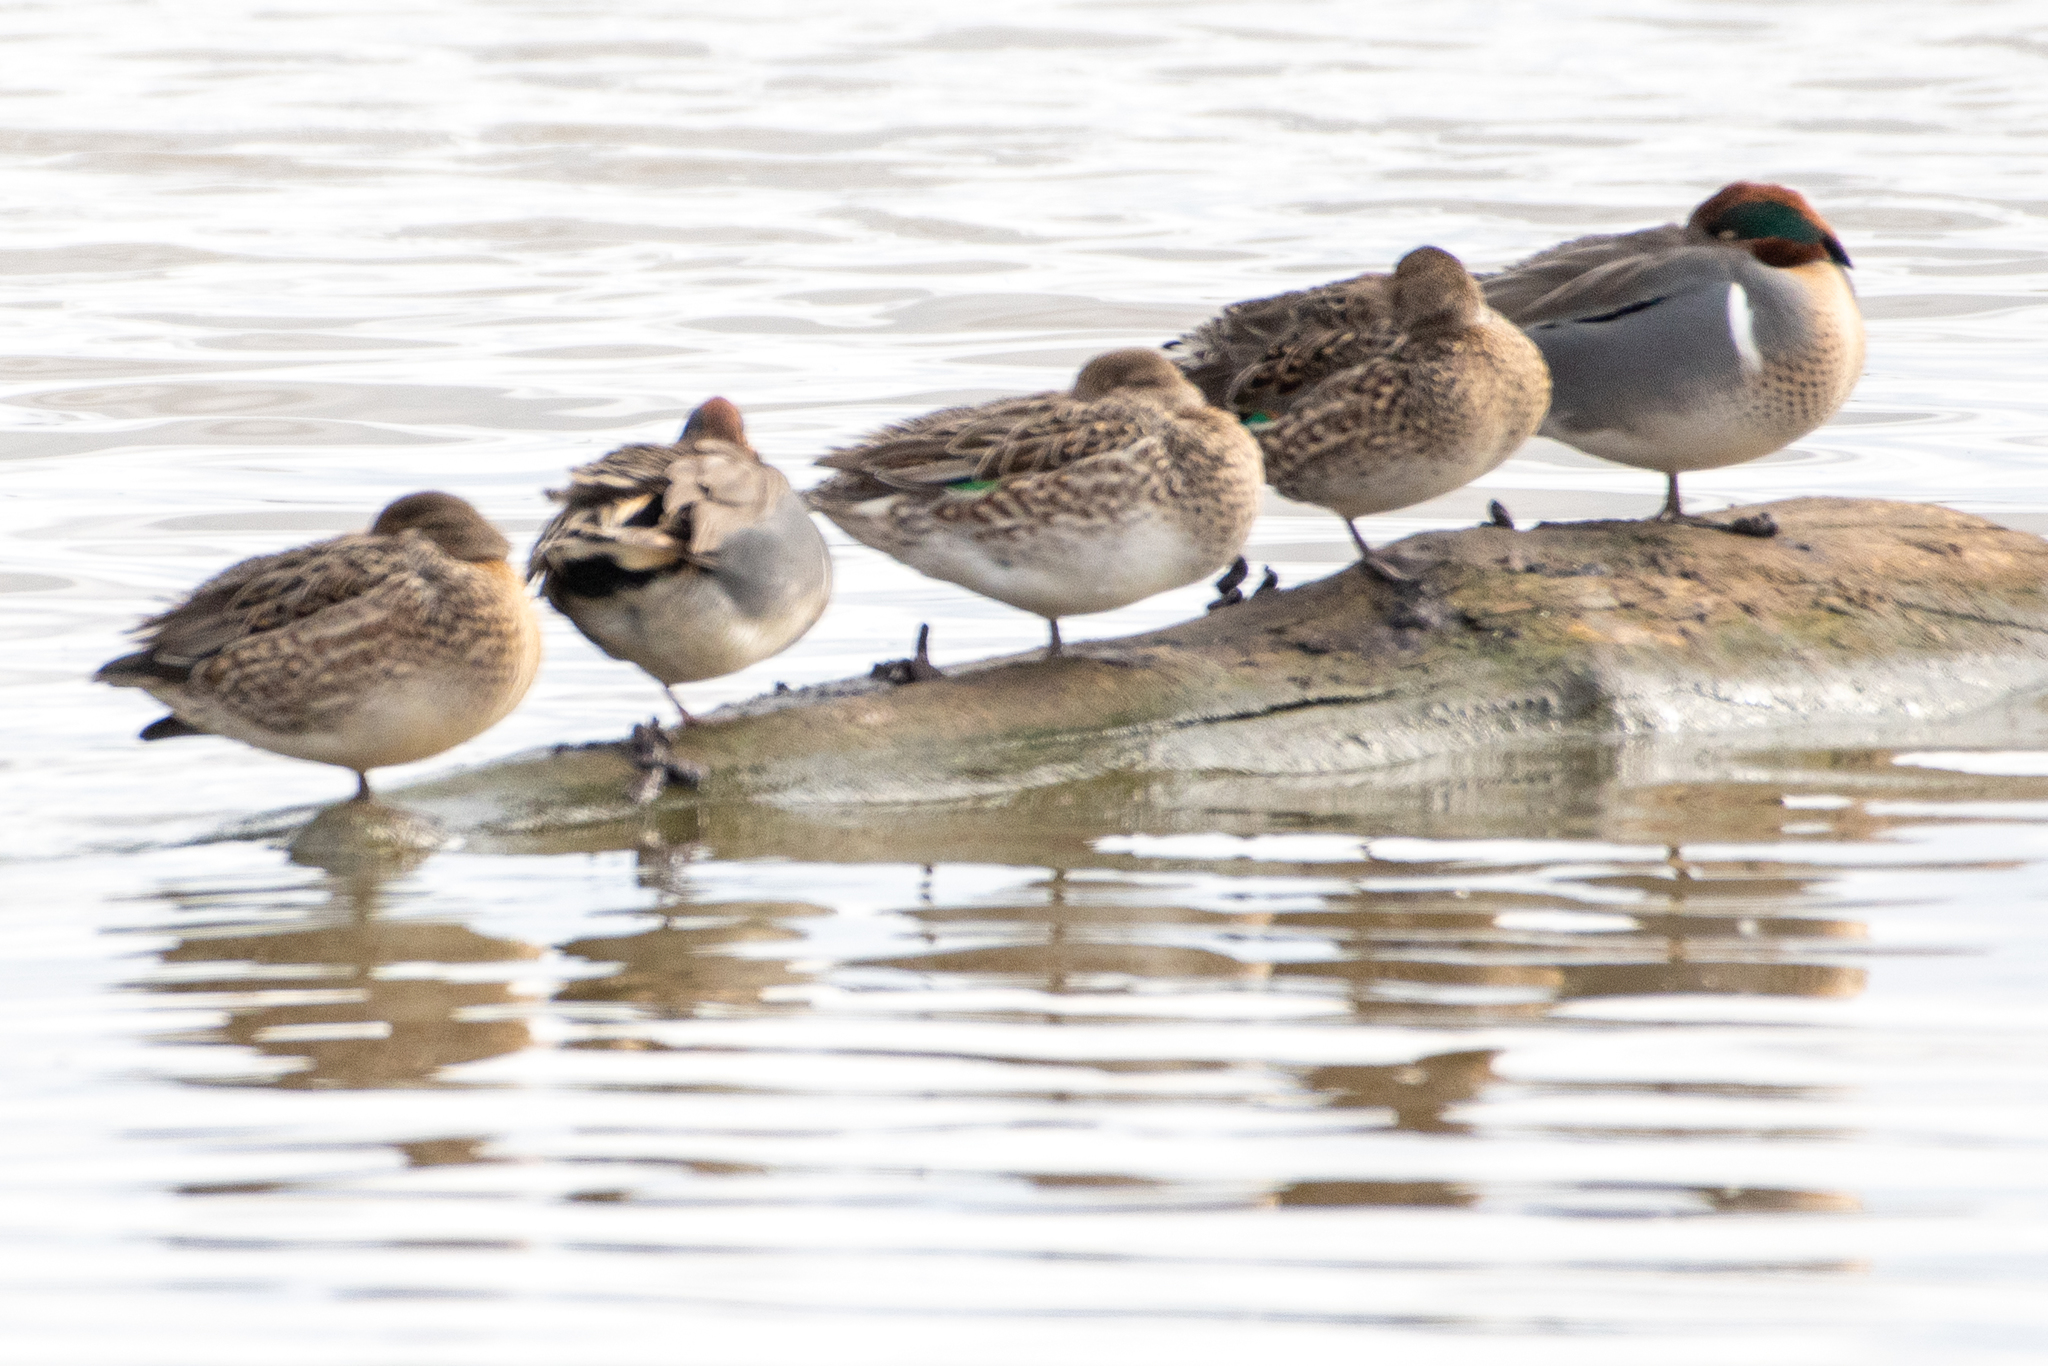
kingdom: Animalia
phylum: Chordata
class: Aves
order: Anseriformes
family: Anatidae
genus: Anas
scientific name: Anas crecca
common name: Eurasian teal
